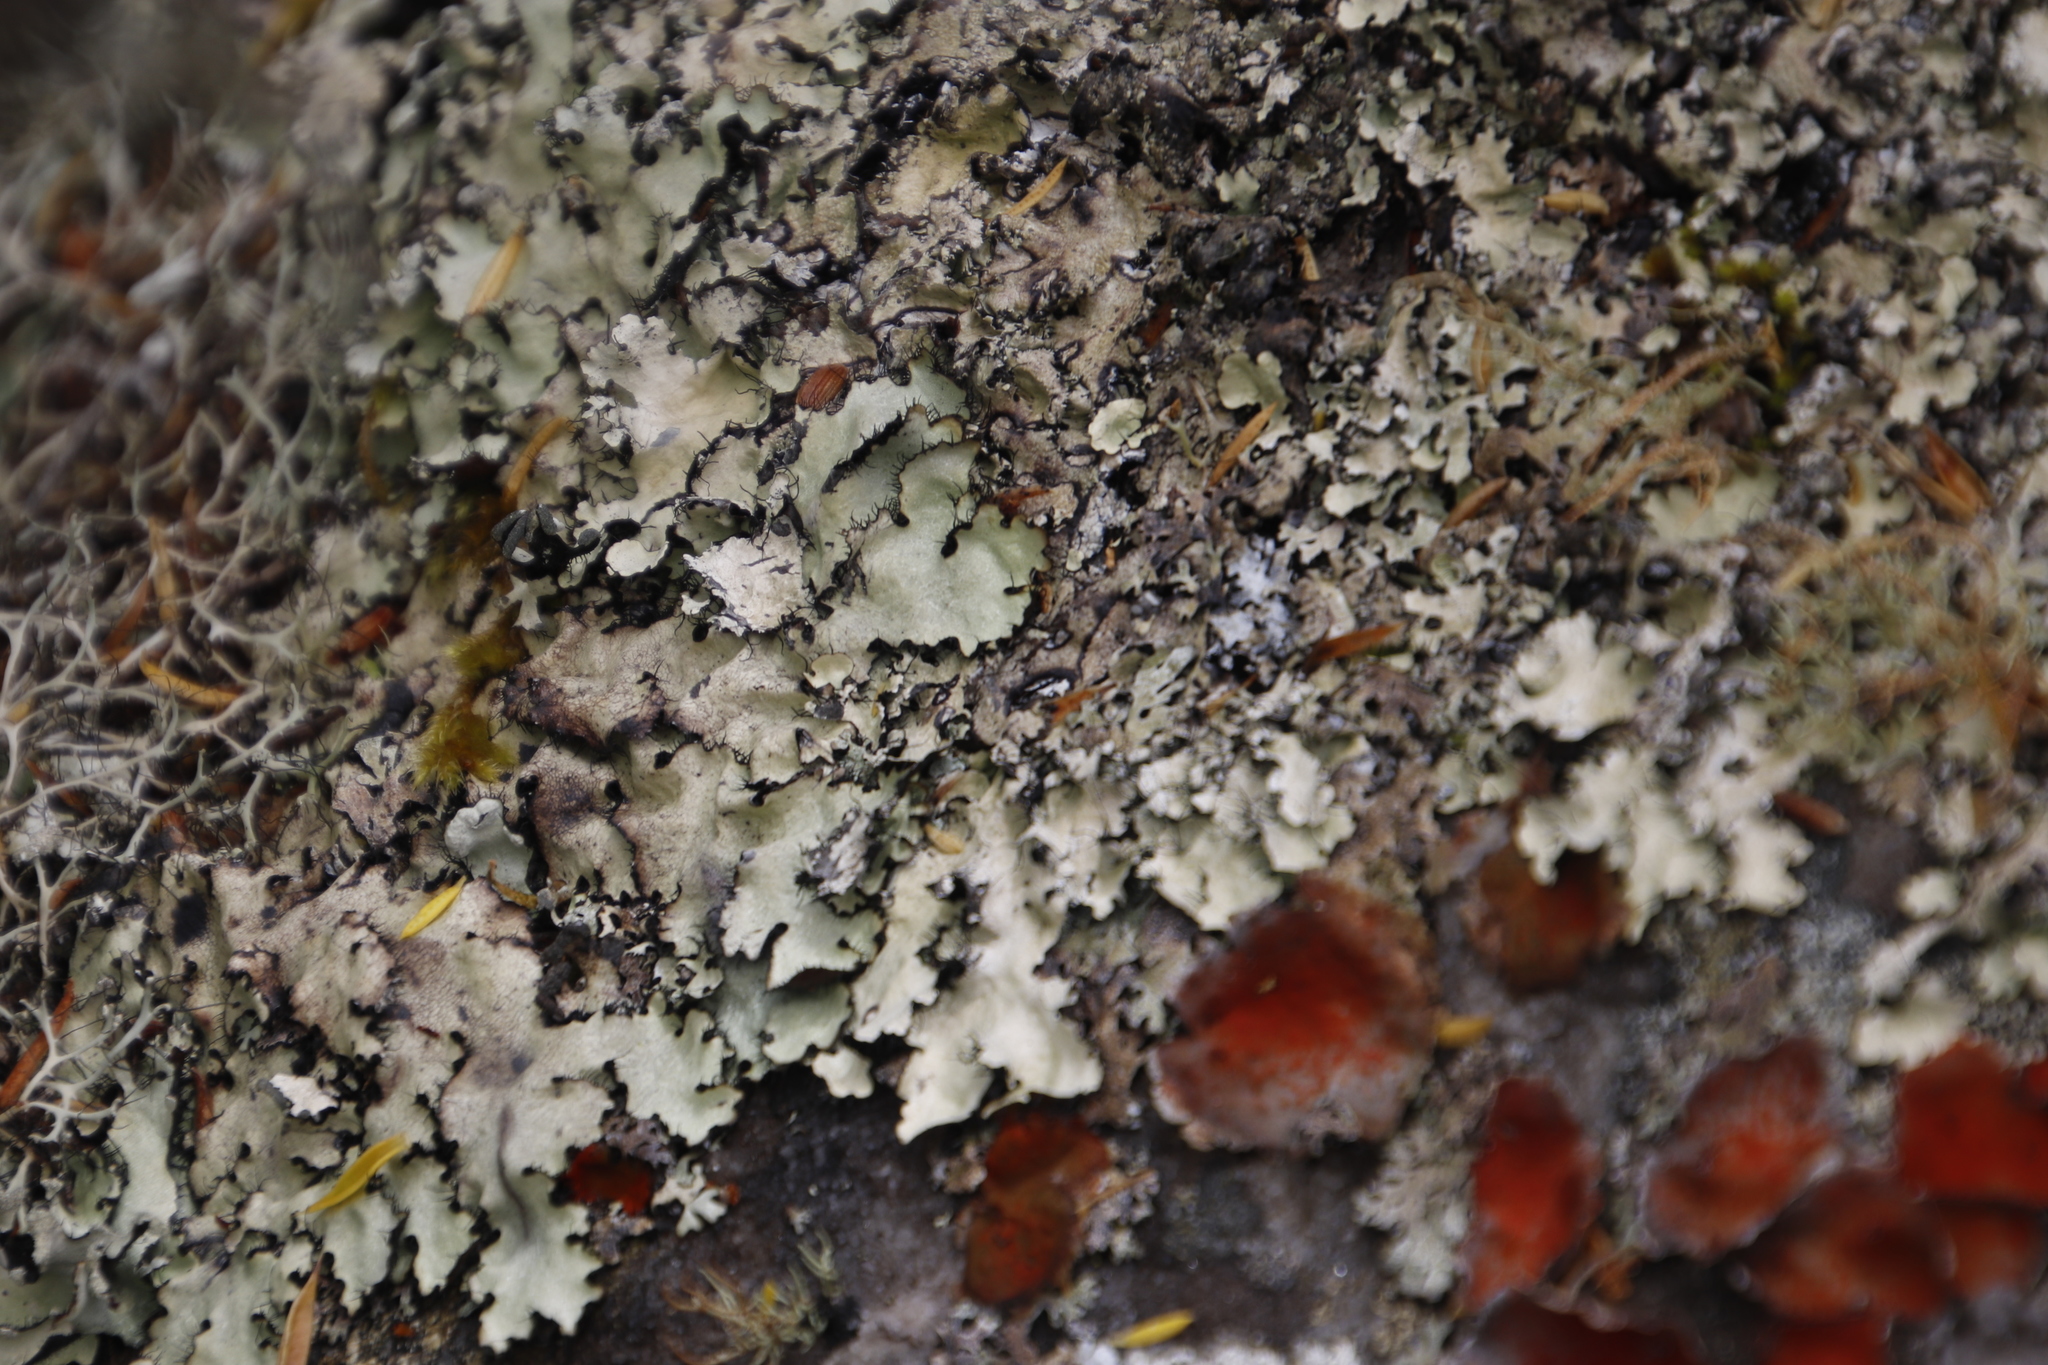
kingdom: Fungi
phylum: Ascomycota
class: Lecanoromycetes
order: Caliciales
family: Physciaceae
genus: Leucodermia
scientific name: Leucodermia leucomelos
